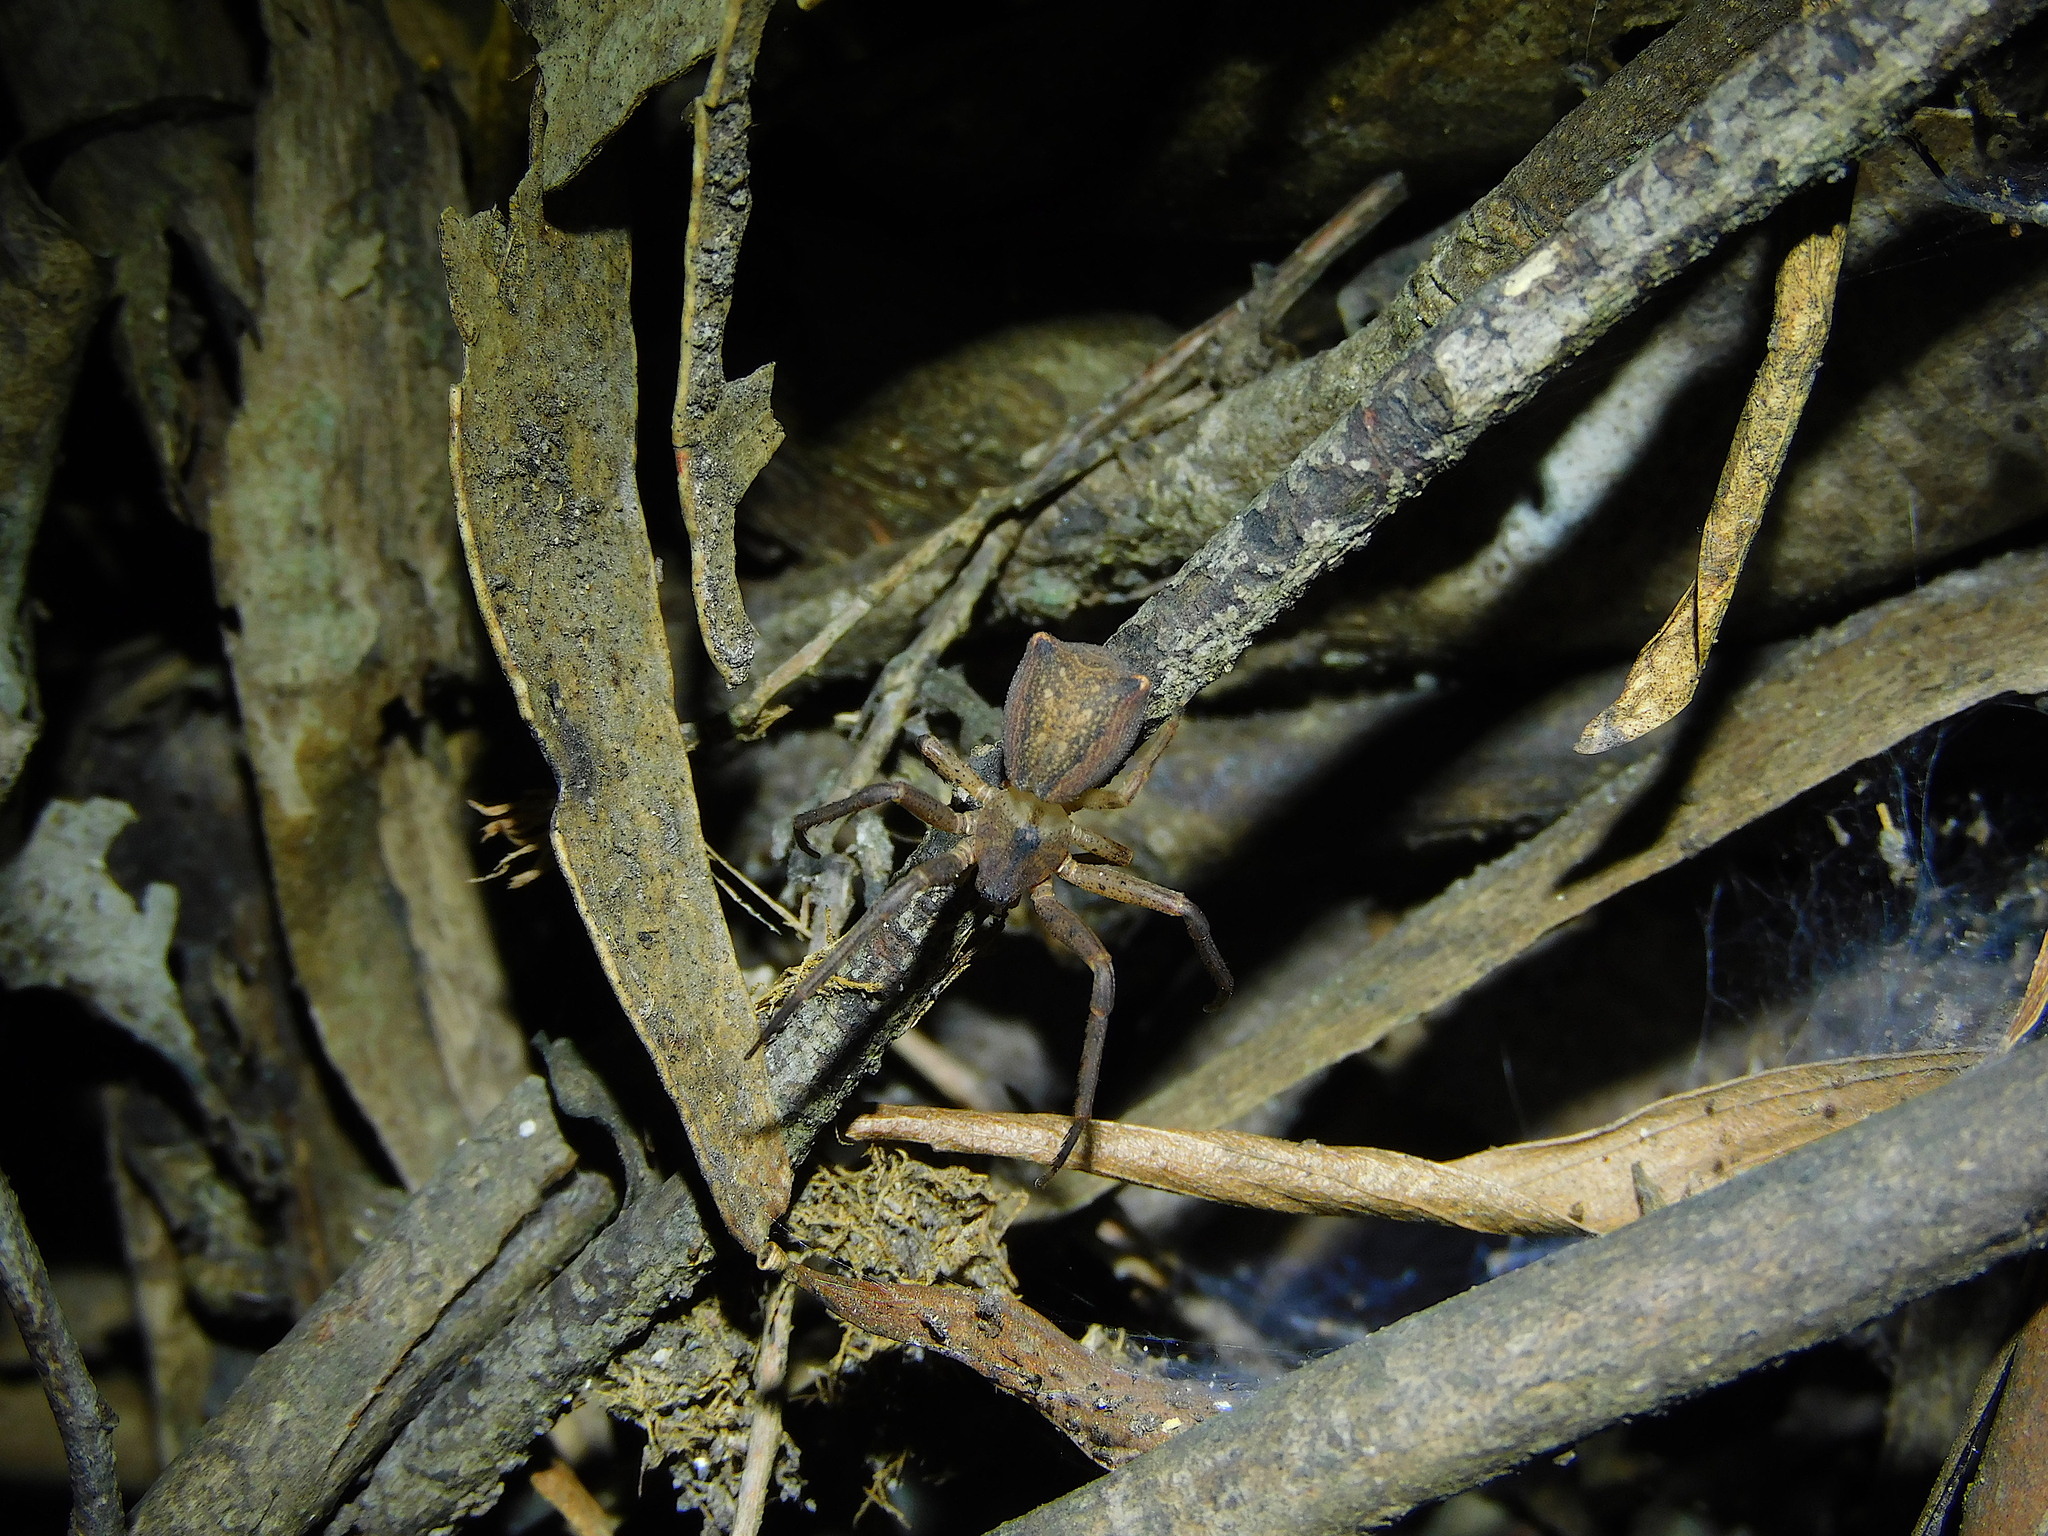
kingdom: Animalia
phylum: Arthropoda
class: Arachnida
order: Araneae
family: Thomisidae
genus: Sidymella
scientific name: Sidymella trapezia
